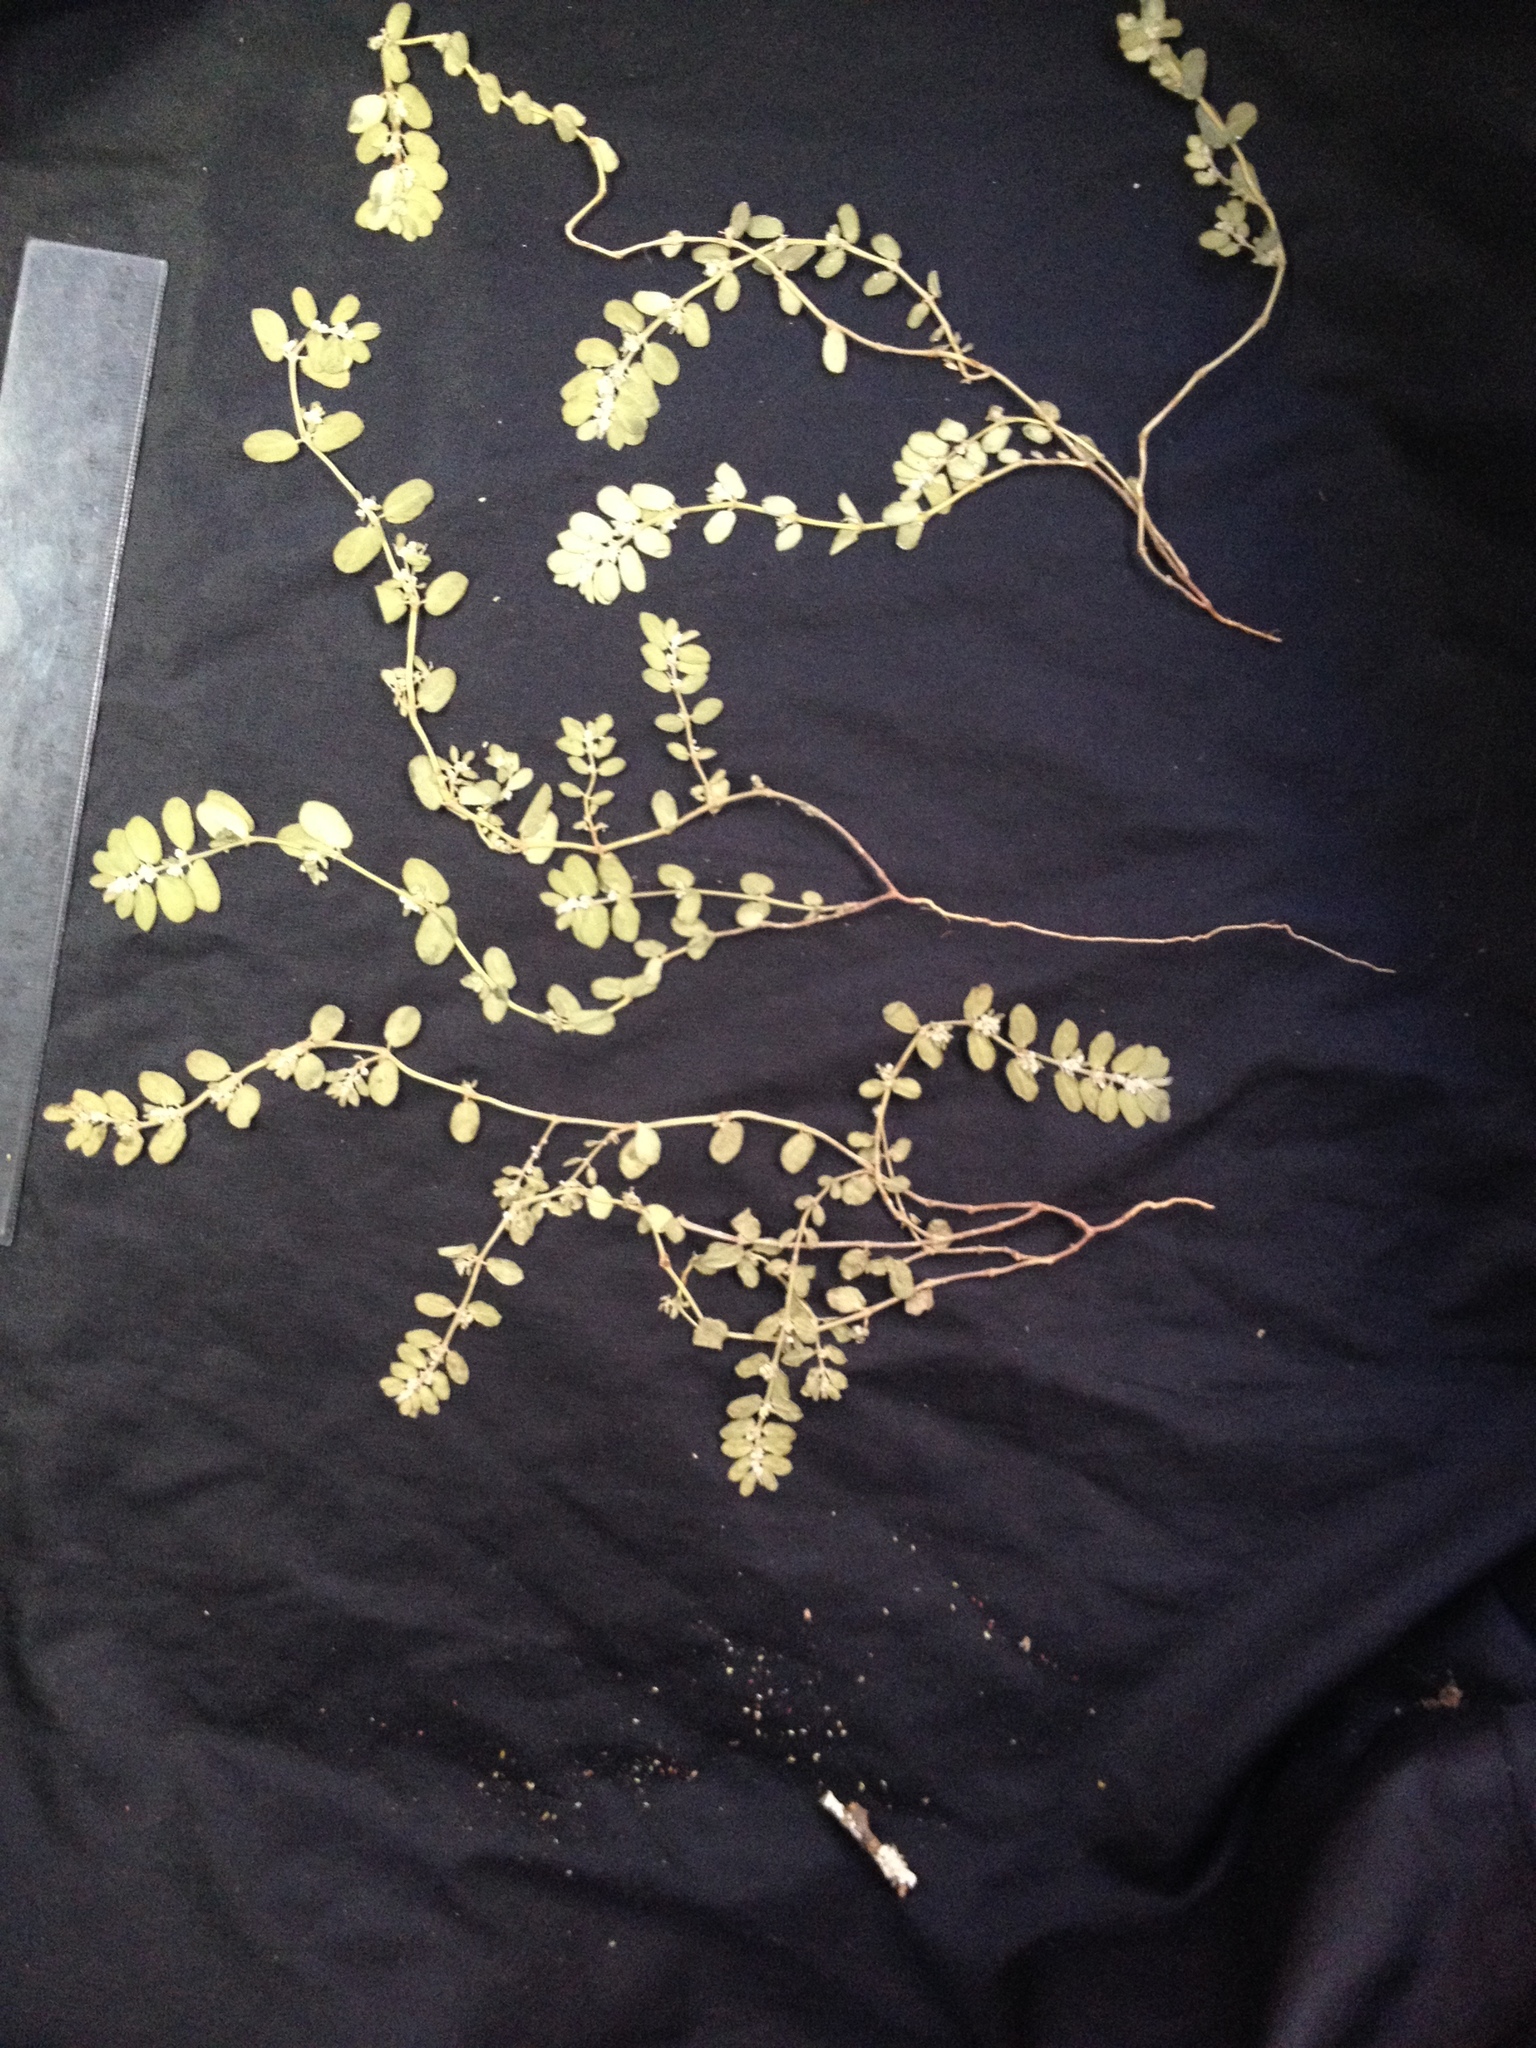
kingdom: Plantae
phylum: Tracheophyta
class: Magnoliopsida
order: Malpighiales
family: Euphorbiaceae
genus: Euphorbia
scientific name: Euphorbia oranensis
